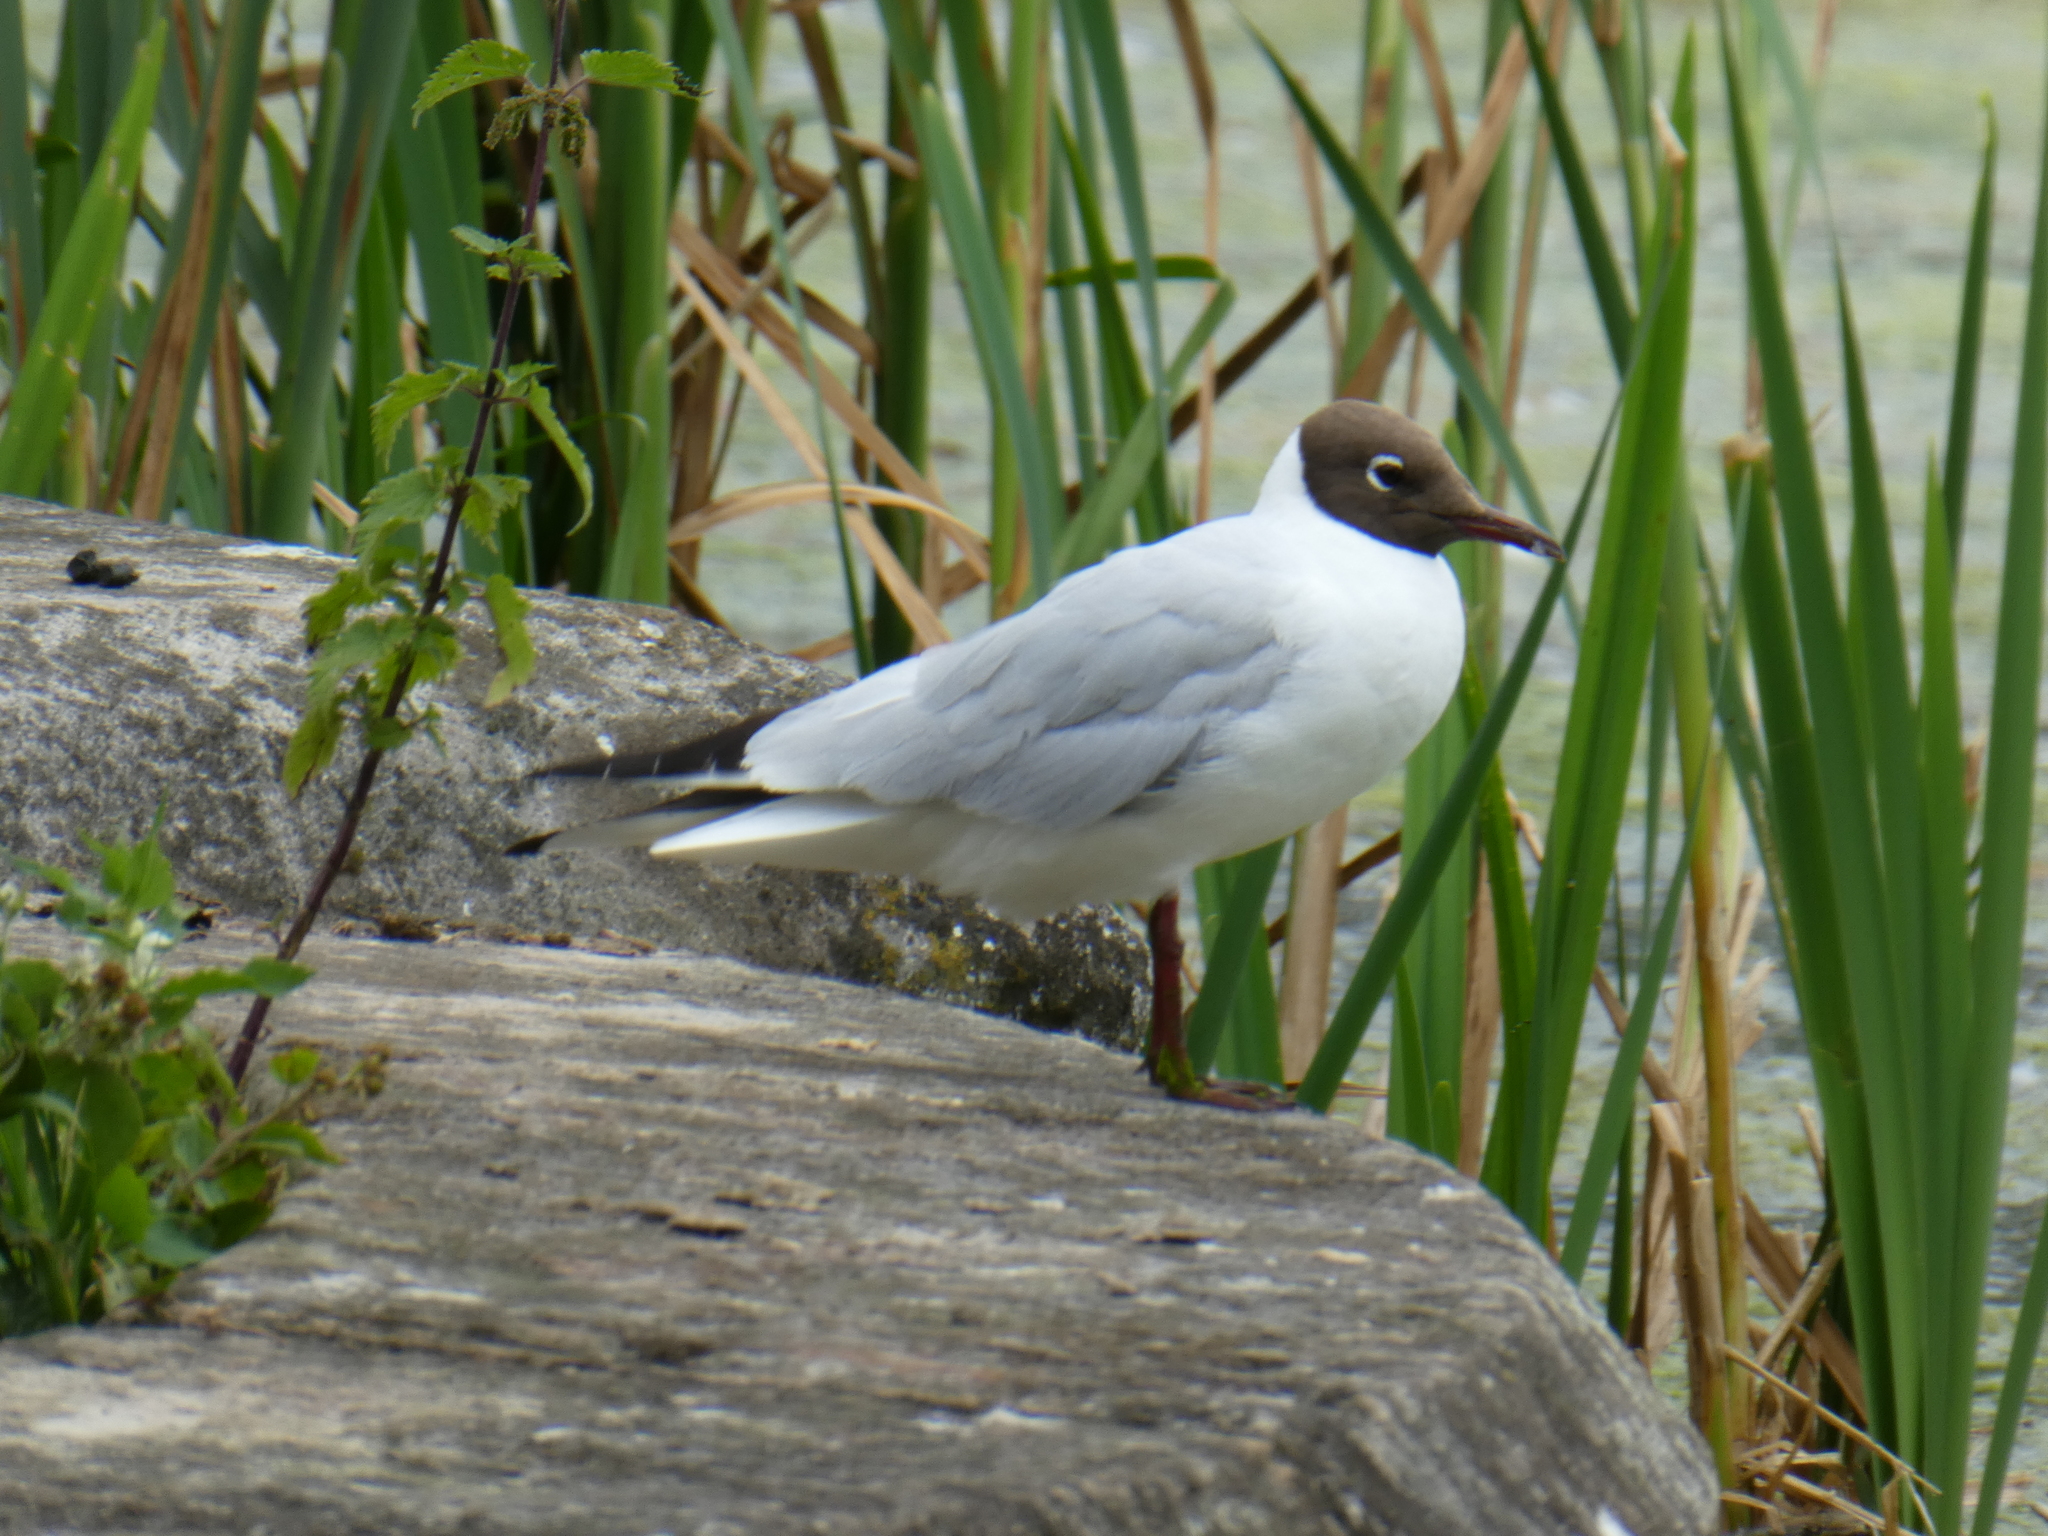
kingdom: Animalia
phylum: Chordata
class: Aves
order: Charadriiformes
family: Laridae
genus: Chroicocephalus
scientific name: Chroicocephalus ridibundus
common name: Black-headed gull
